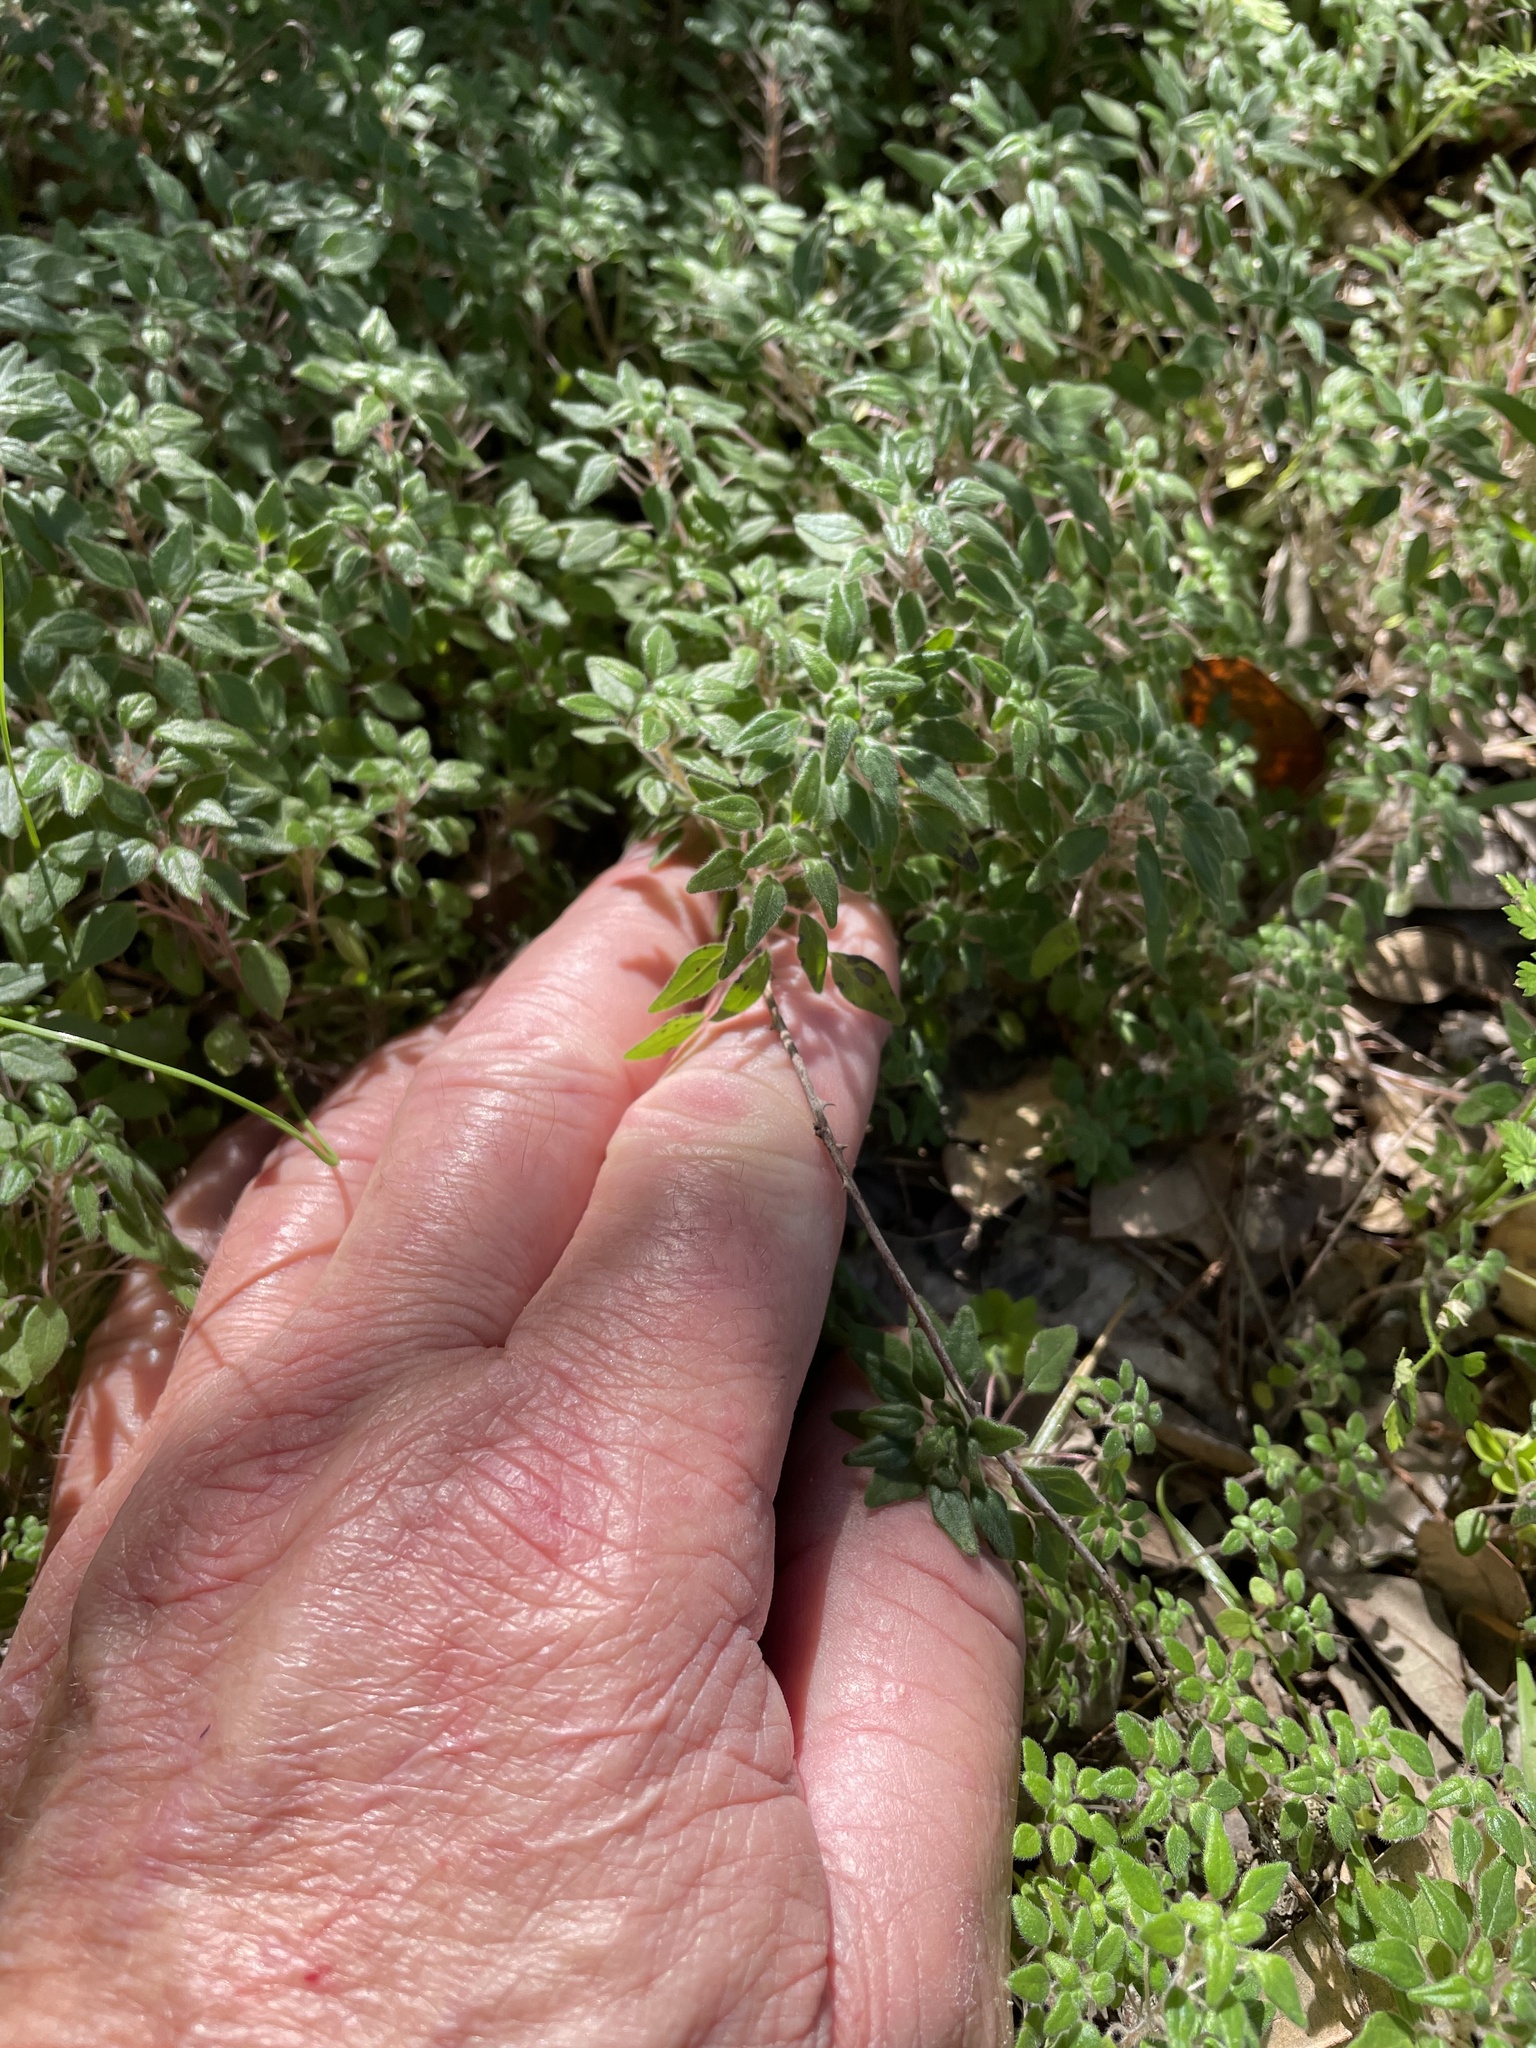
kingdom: Plantae
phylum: Tracheophyta
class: Magnoliopsida
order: Rosales
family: Urticaceae
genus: Parietaria
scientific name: Parietaria pensylvanica
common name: Pennsylvania pellitory
